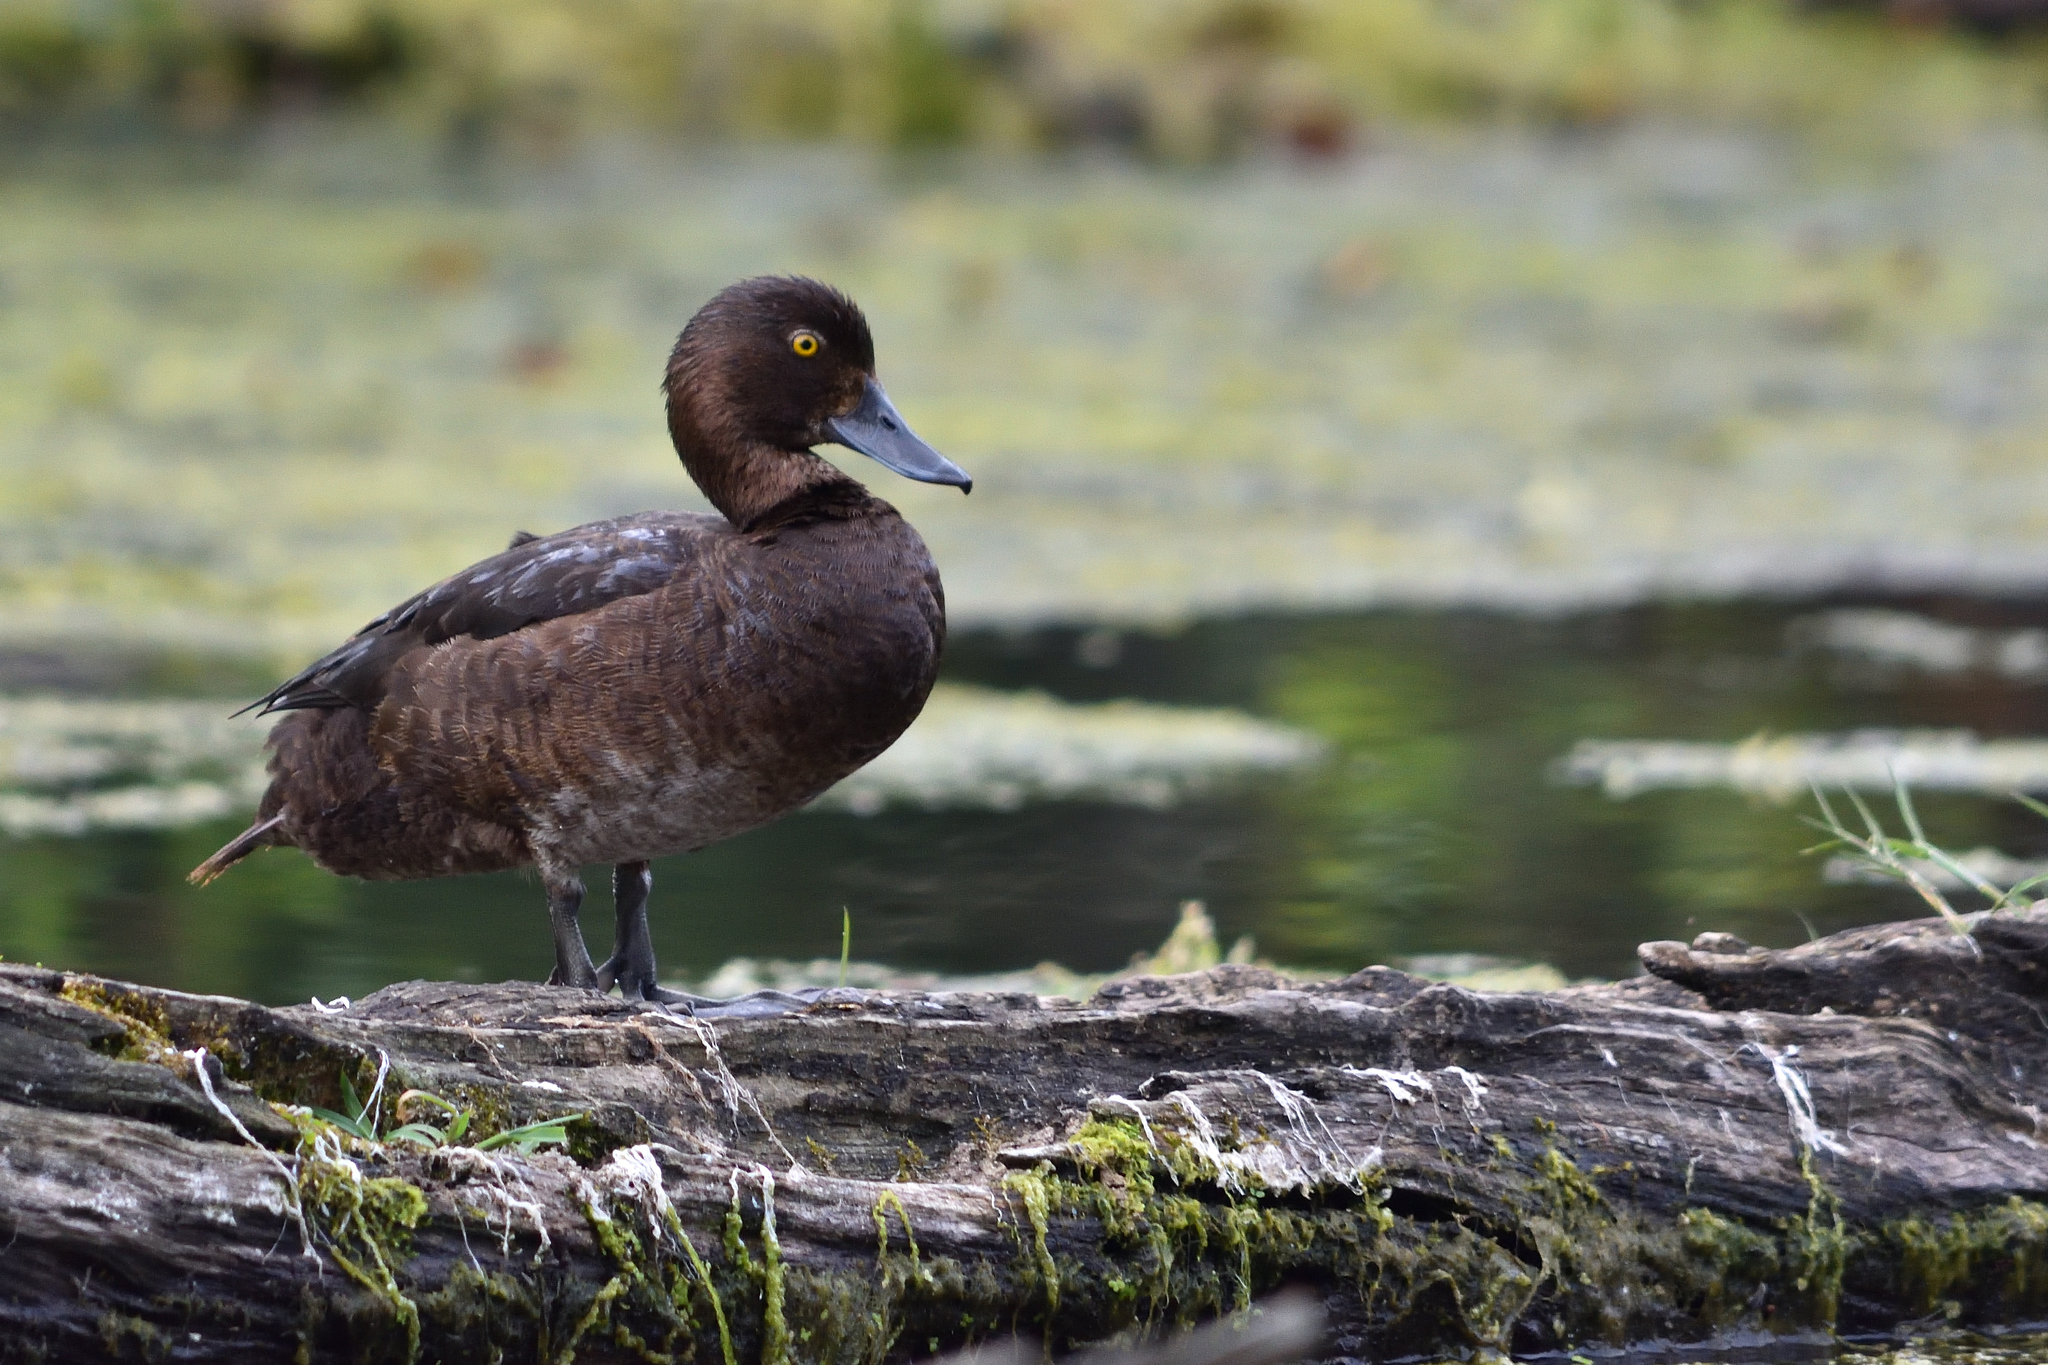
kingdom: Animalia
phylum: Chordata
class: Aves
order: Anseriformes
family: Anatidae
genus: Aythya
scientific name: Aythya fuligula
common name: Tufted duck
